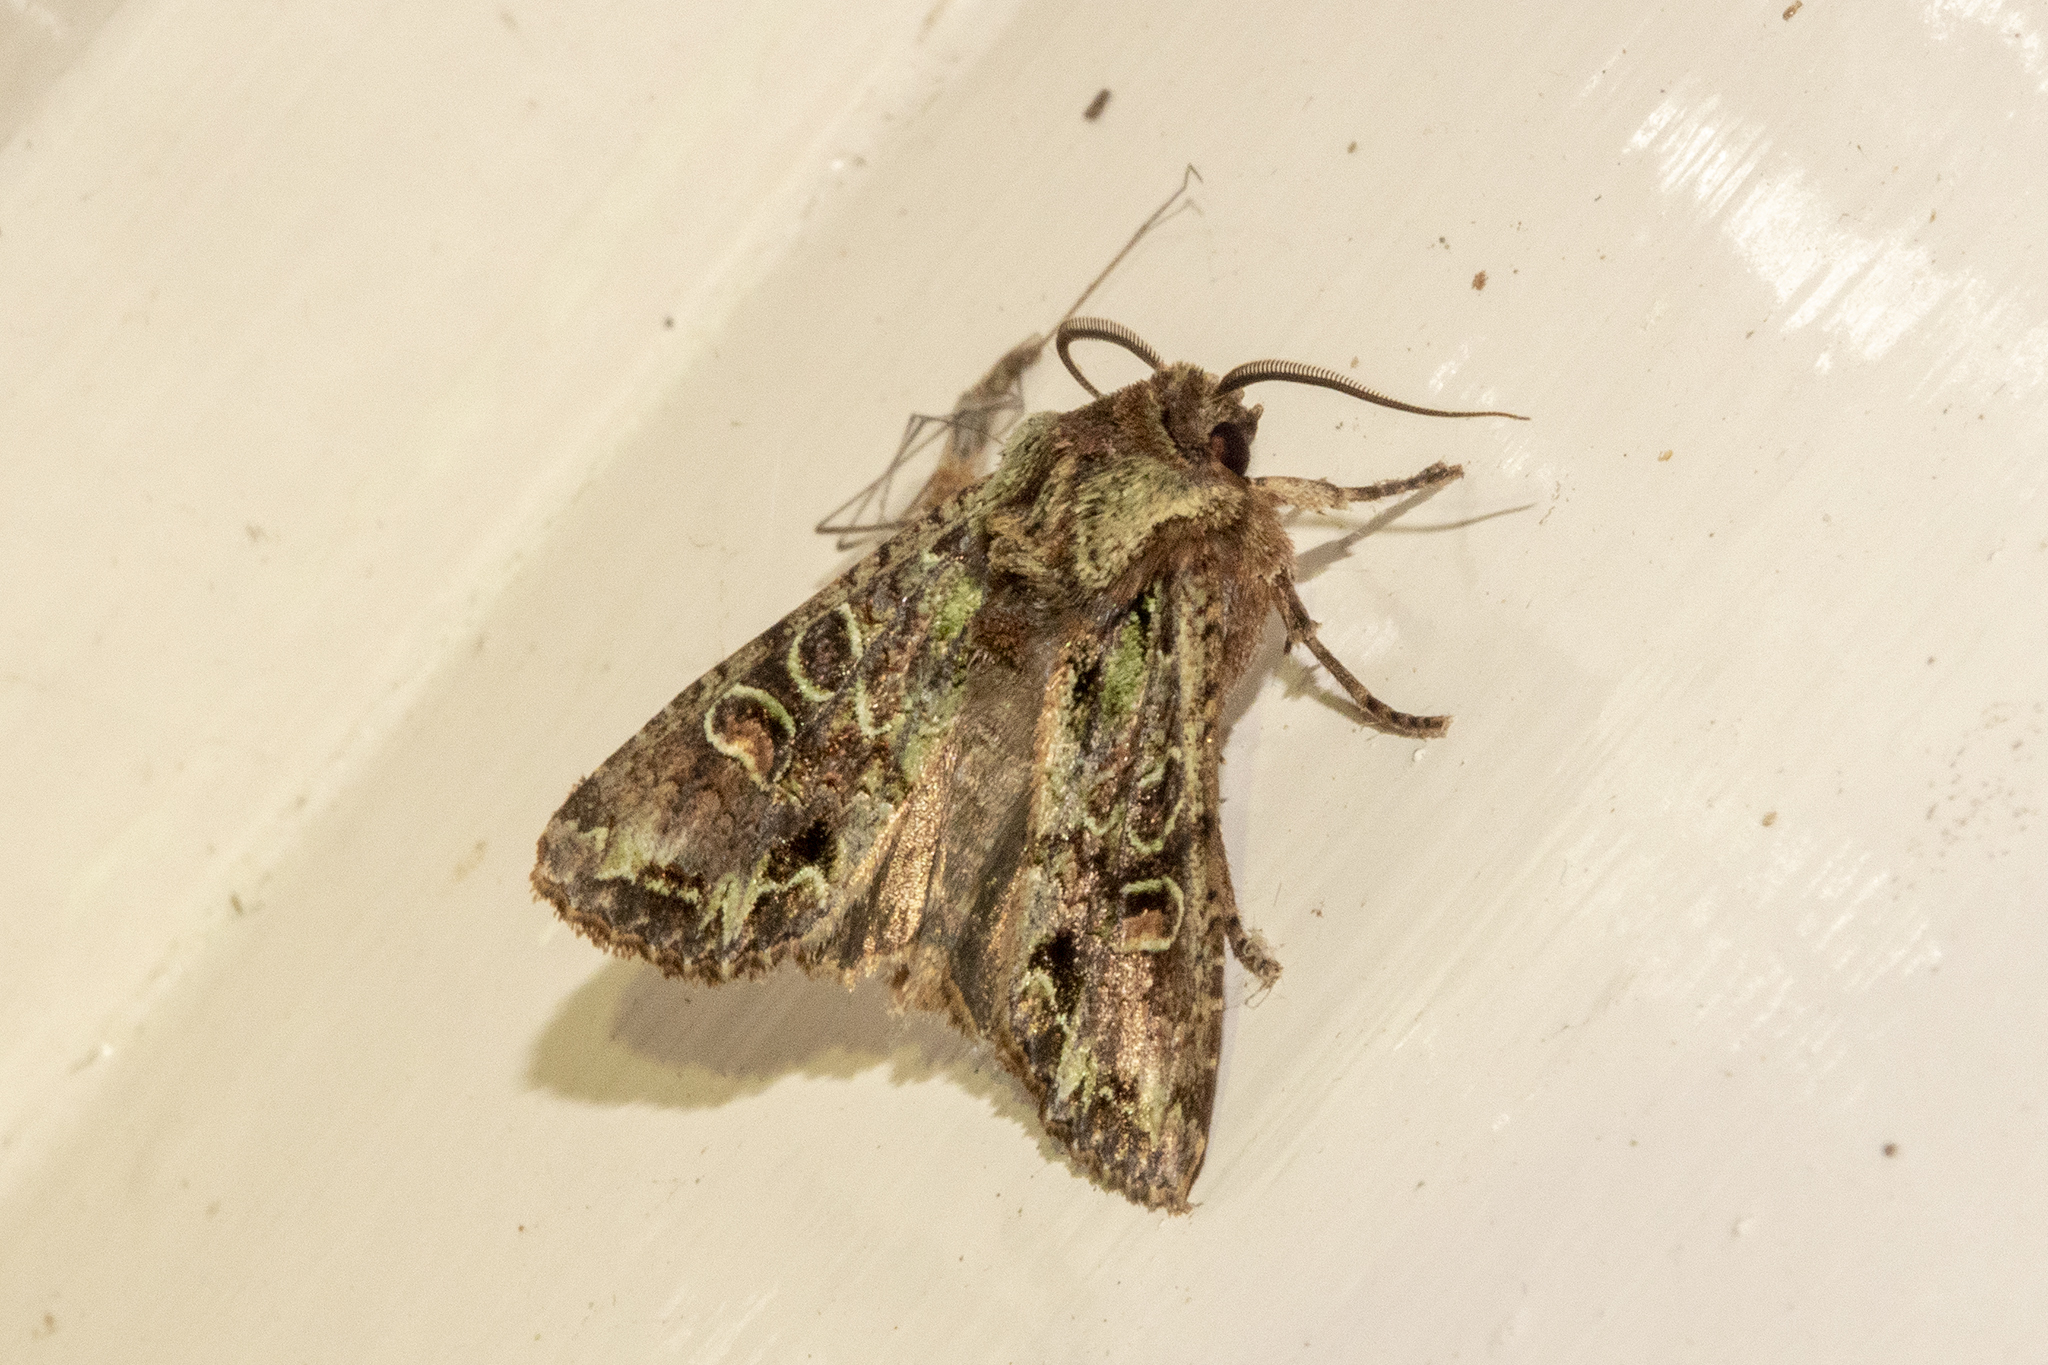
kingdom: Animalia
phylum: Arthropoda
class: Insecta
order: Lepidoptera
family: Noctuidae
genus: Ichneutica
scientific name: Ichneutica insignis
